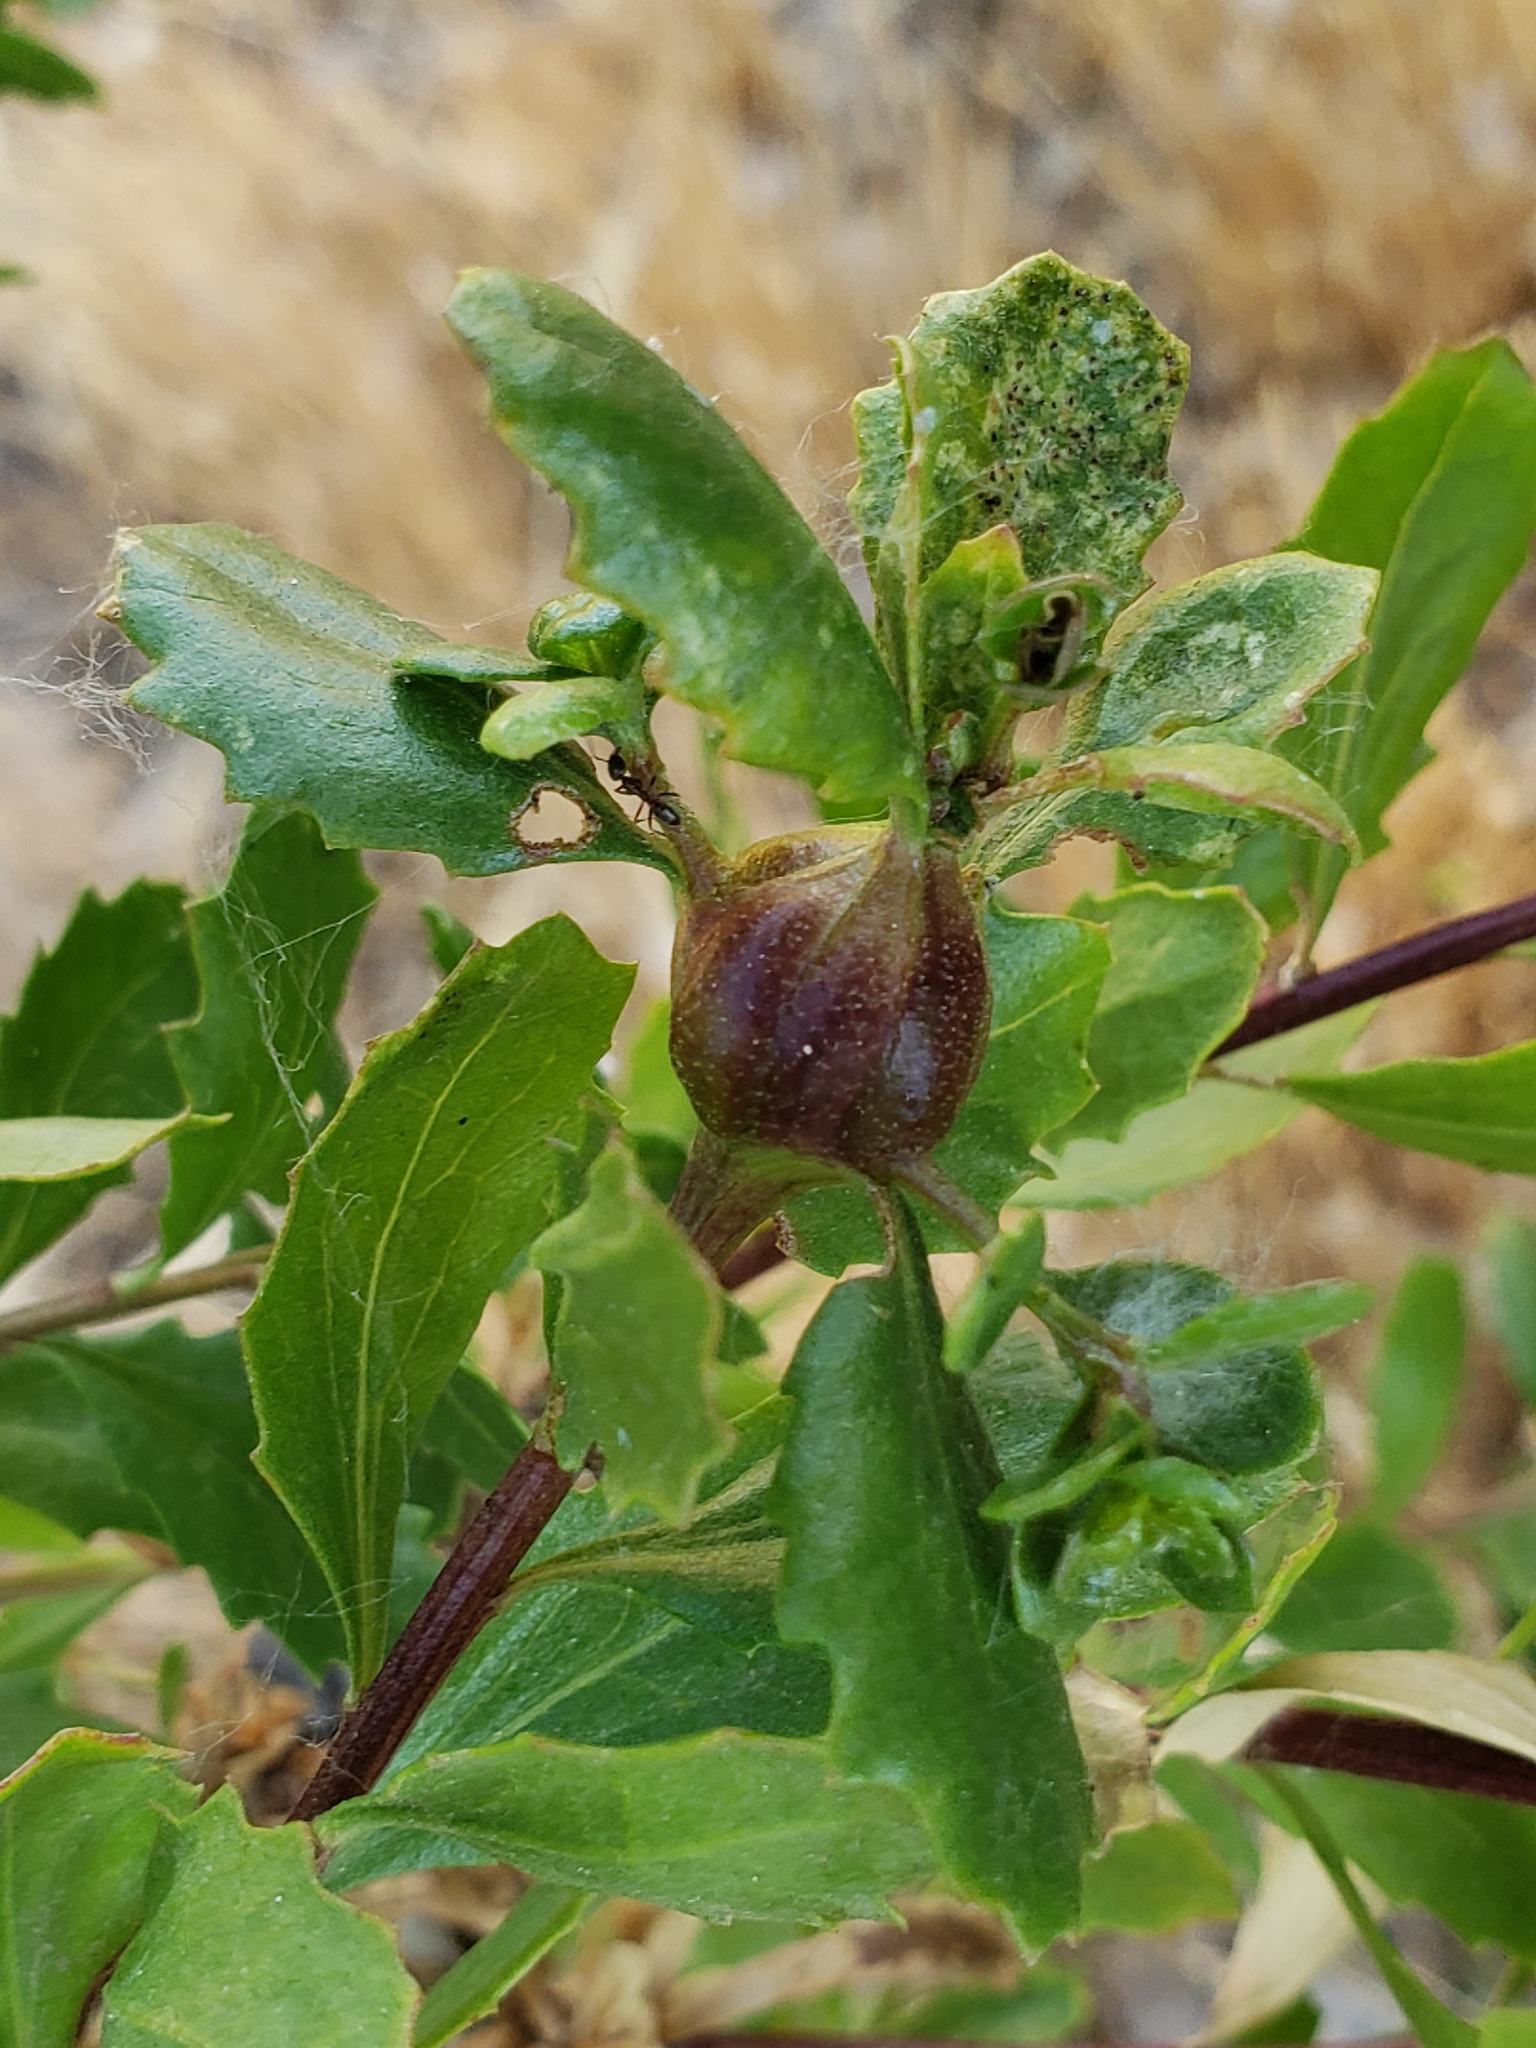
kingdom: Animalia
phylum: Arthropoda
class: Insecta
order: Lepidoptera
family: Gelechiidae
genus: Gnorimoschema
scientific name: Gnorimoschema baccharisella
